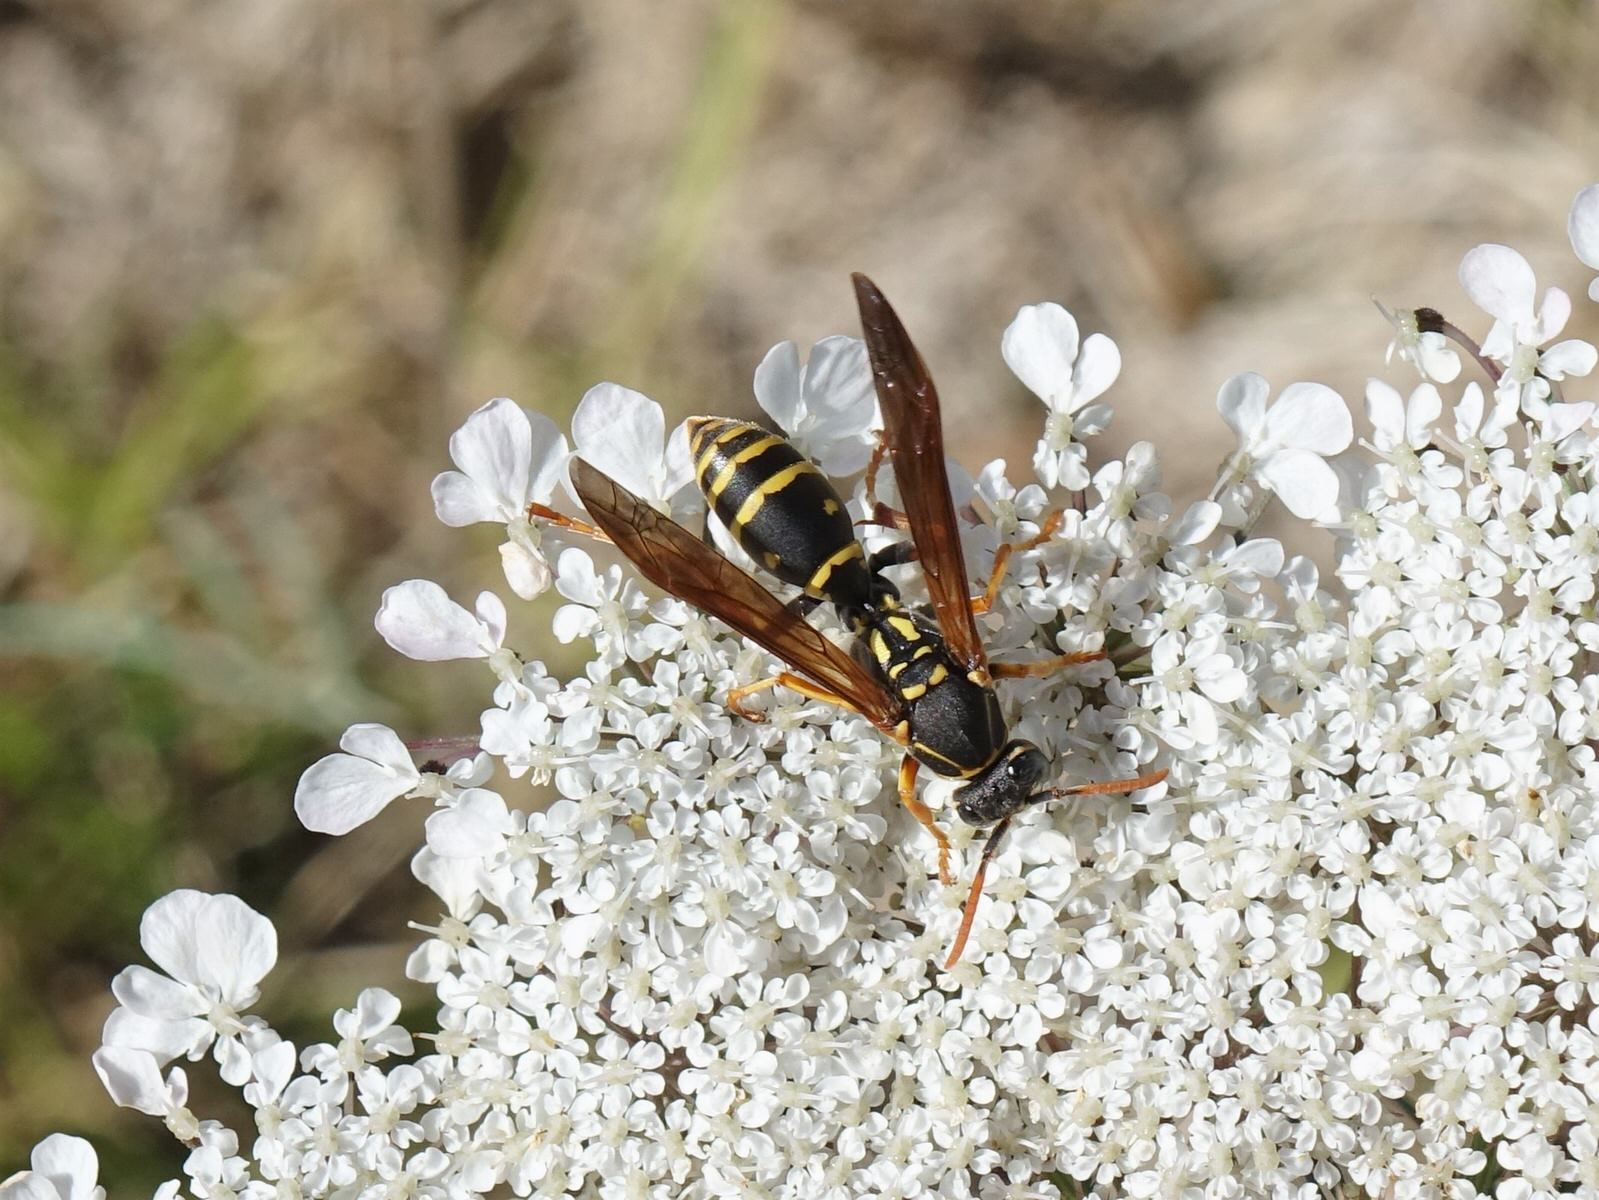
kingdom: Animalia
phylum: Arthropoda
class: Insecta
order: Hymenoptera
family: Eumenidae
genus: Polistes
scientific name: Polistes chinensis
